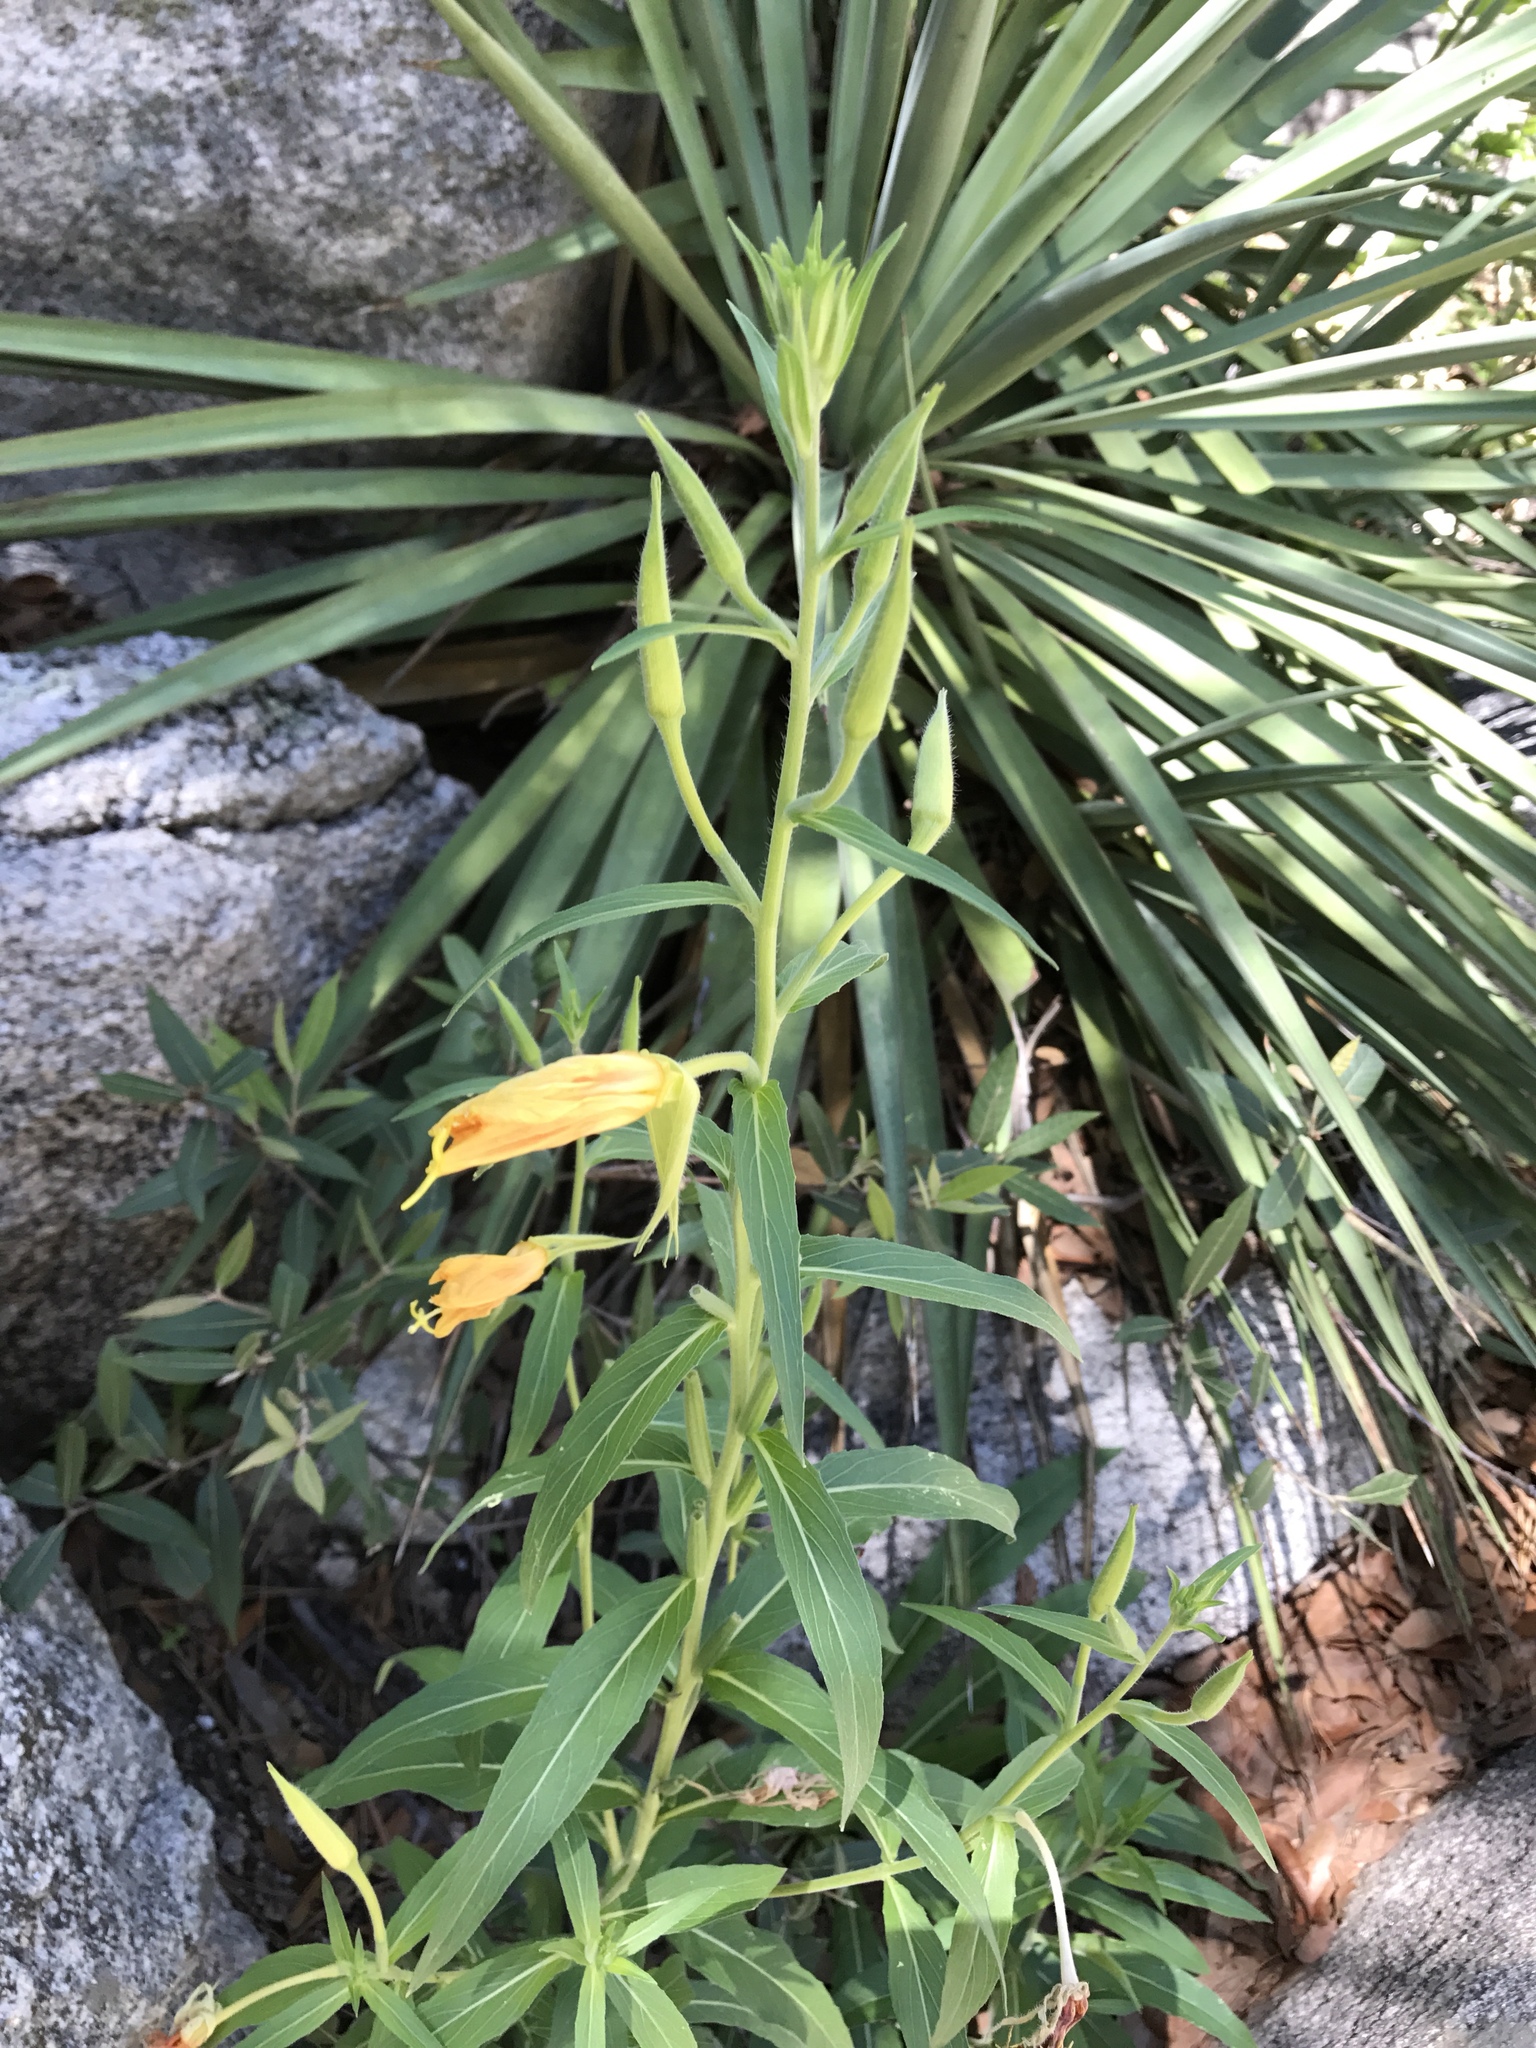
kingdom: Plantae
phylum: Tracheophyta
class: Magnoliopsida
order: Myrtales
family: Onagraceae
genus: Oenothera
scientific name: Oenothera elata
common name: Hooker's evening-primrose
